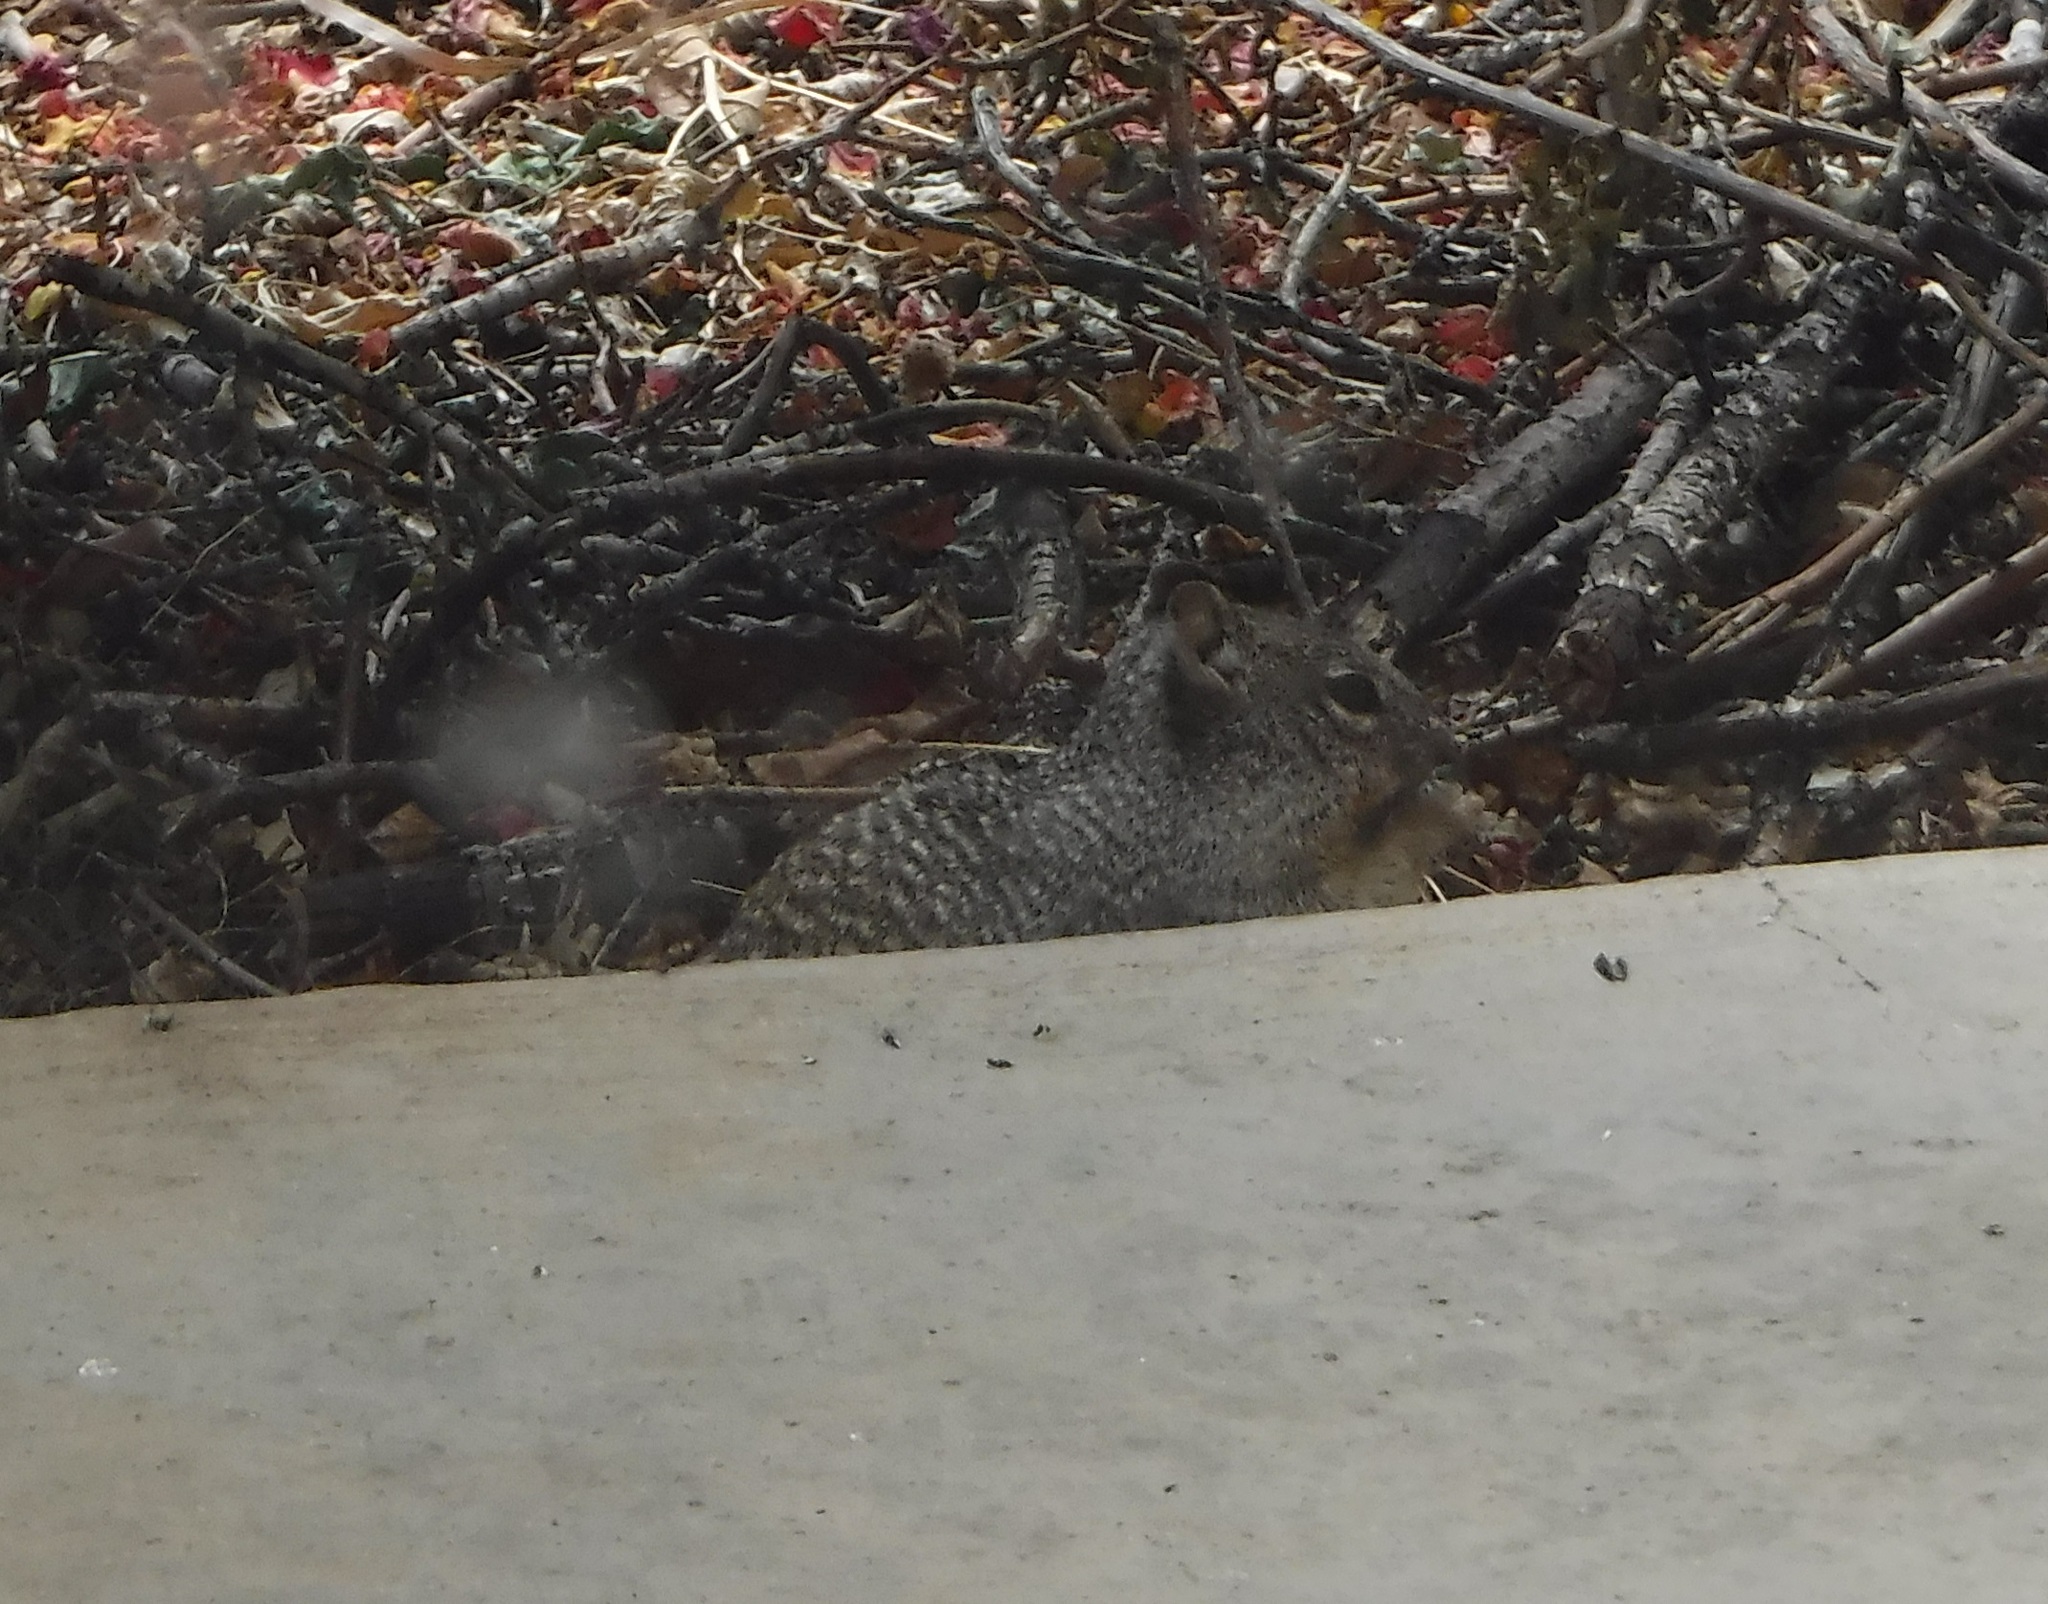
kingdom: Animalia
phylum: Chordata
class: Mammalia
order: Rodentia
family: Sciuridae
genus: Otospermophilus
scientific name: Otospermophilus variegatus
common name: Rock squirrel
